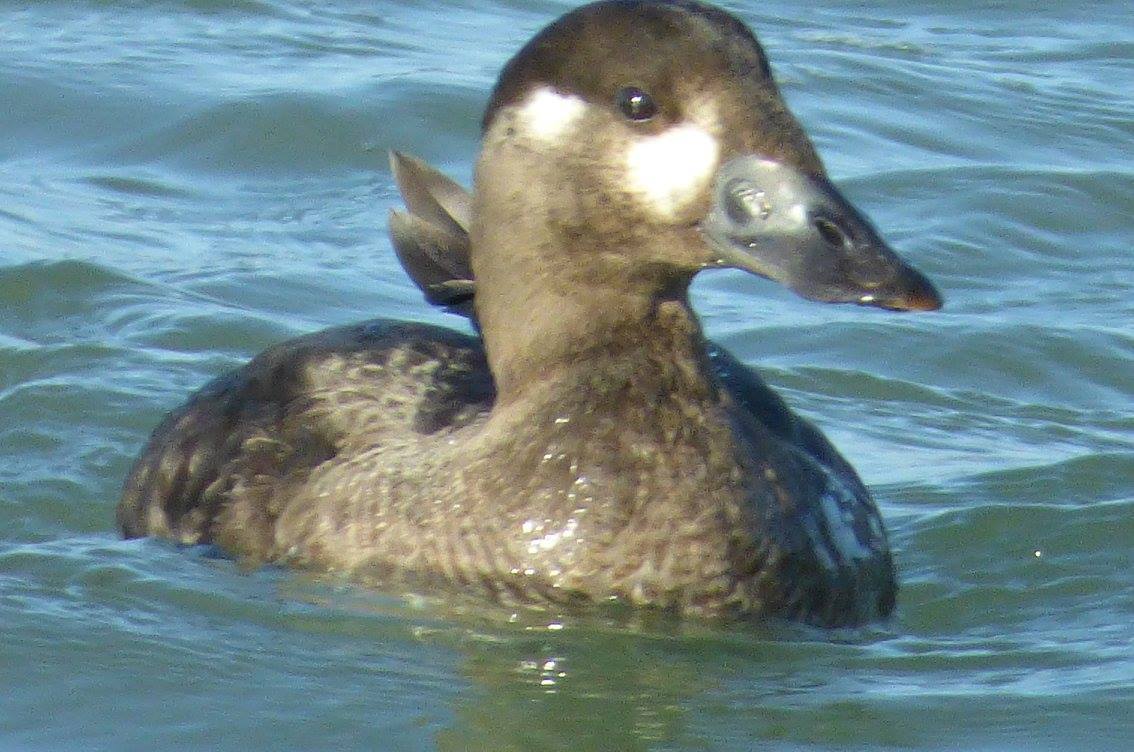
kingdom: Animalia
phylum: Chordata
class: Aves
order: Anseriformes
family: Anatidae
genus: Melanitta
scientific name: Melanitta perspicillata
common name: Surf scoter
